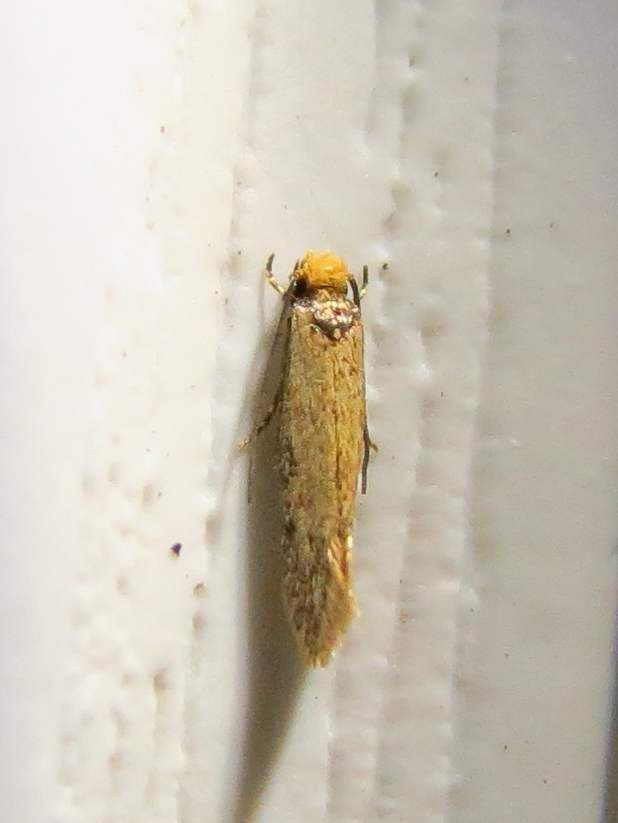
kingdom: Animalia
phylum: Arthropoda
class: Insecta
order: Lepidoptera
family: Meessiidae
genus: Homostinea
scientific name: Homostinea curviliniella
